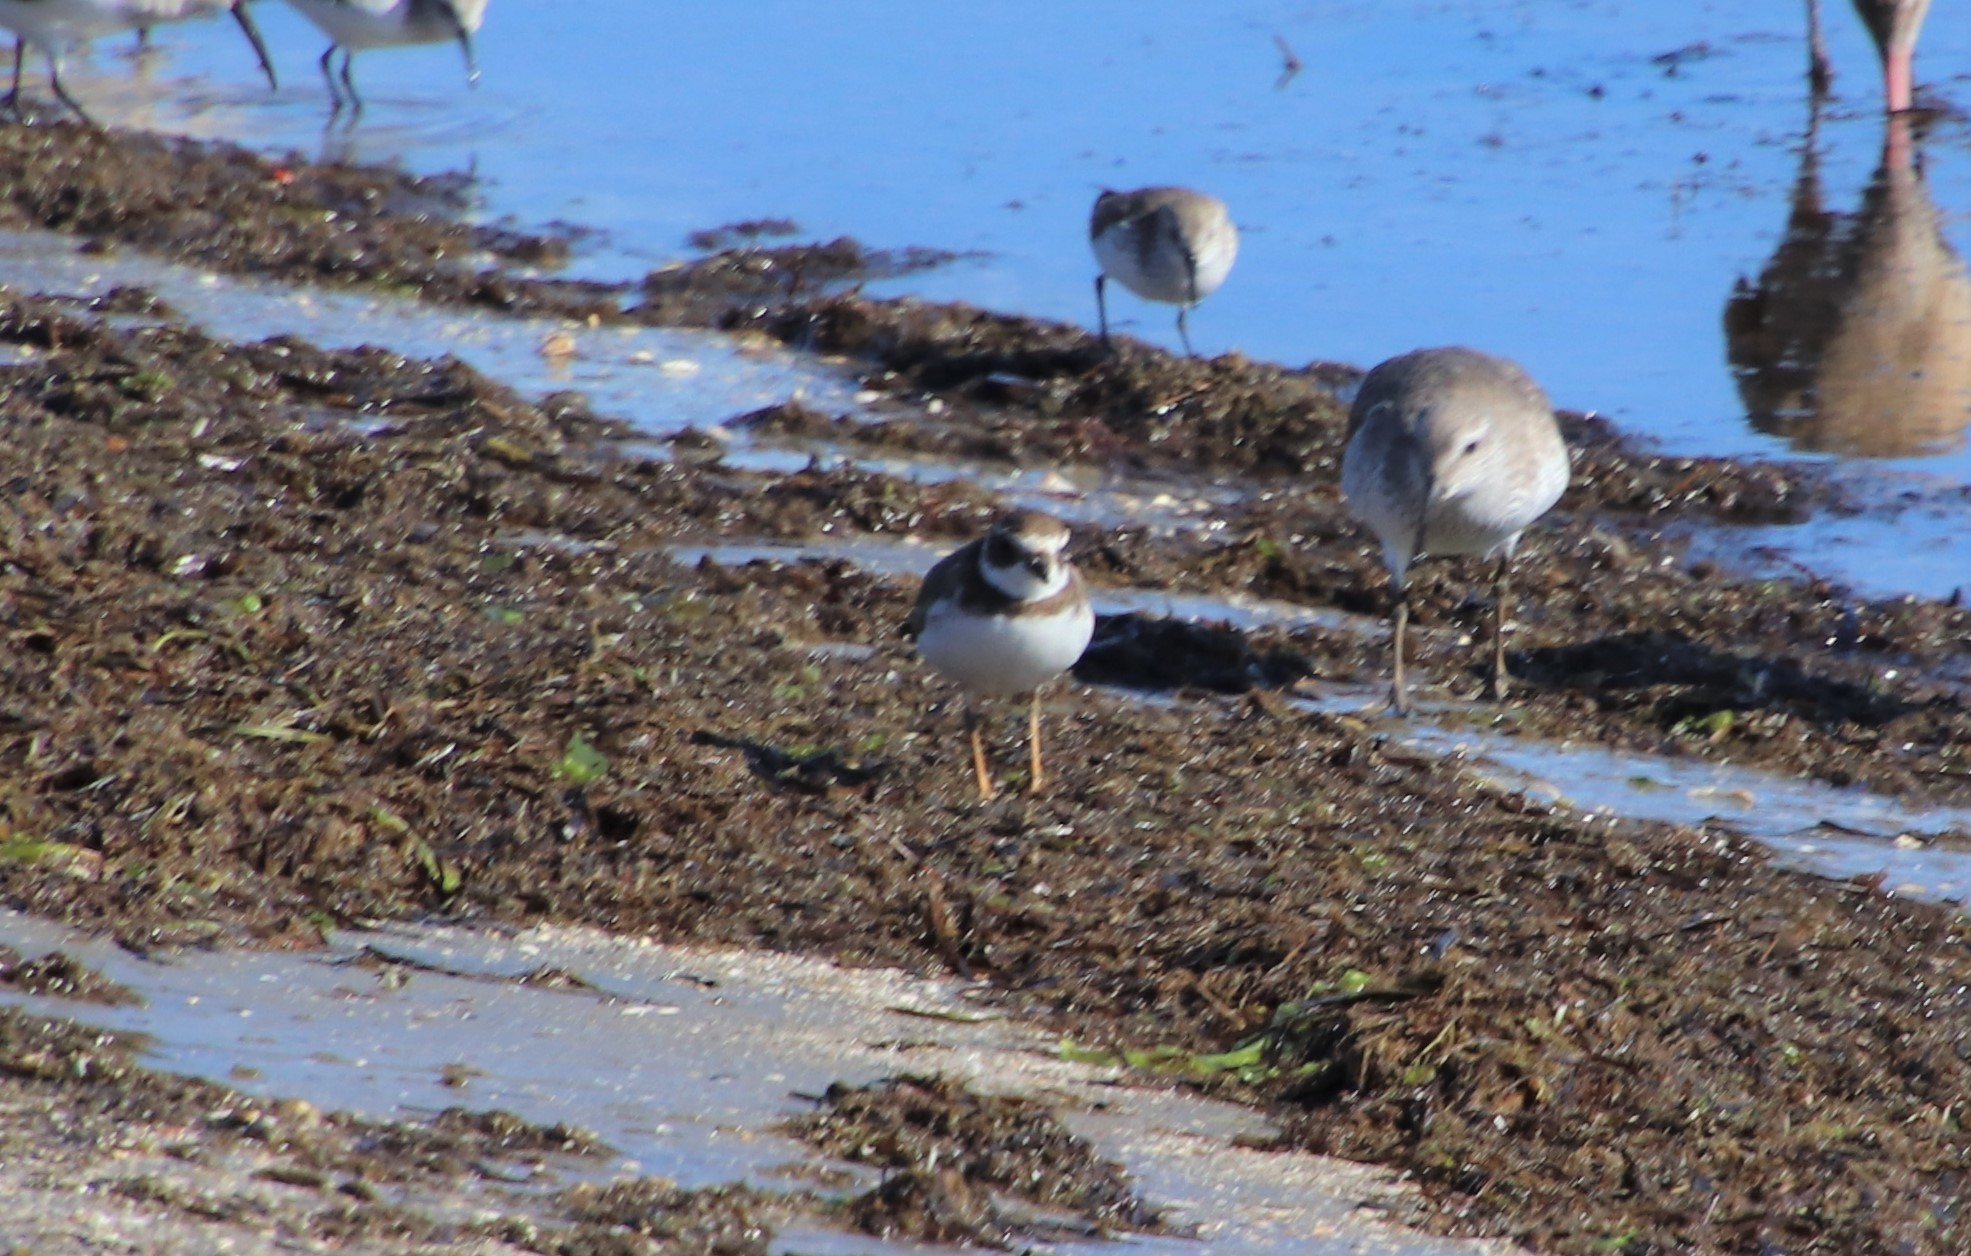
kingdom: Animalia
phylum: Chordata
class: Aves
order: Charadriiformes
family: Charadriidae
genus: Charadrius
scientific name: Charadrius semipalmatus
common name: Semipalmated plover
